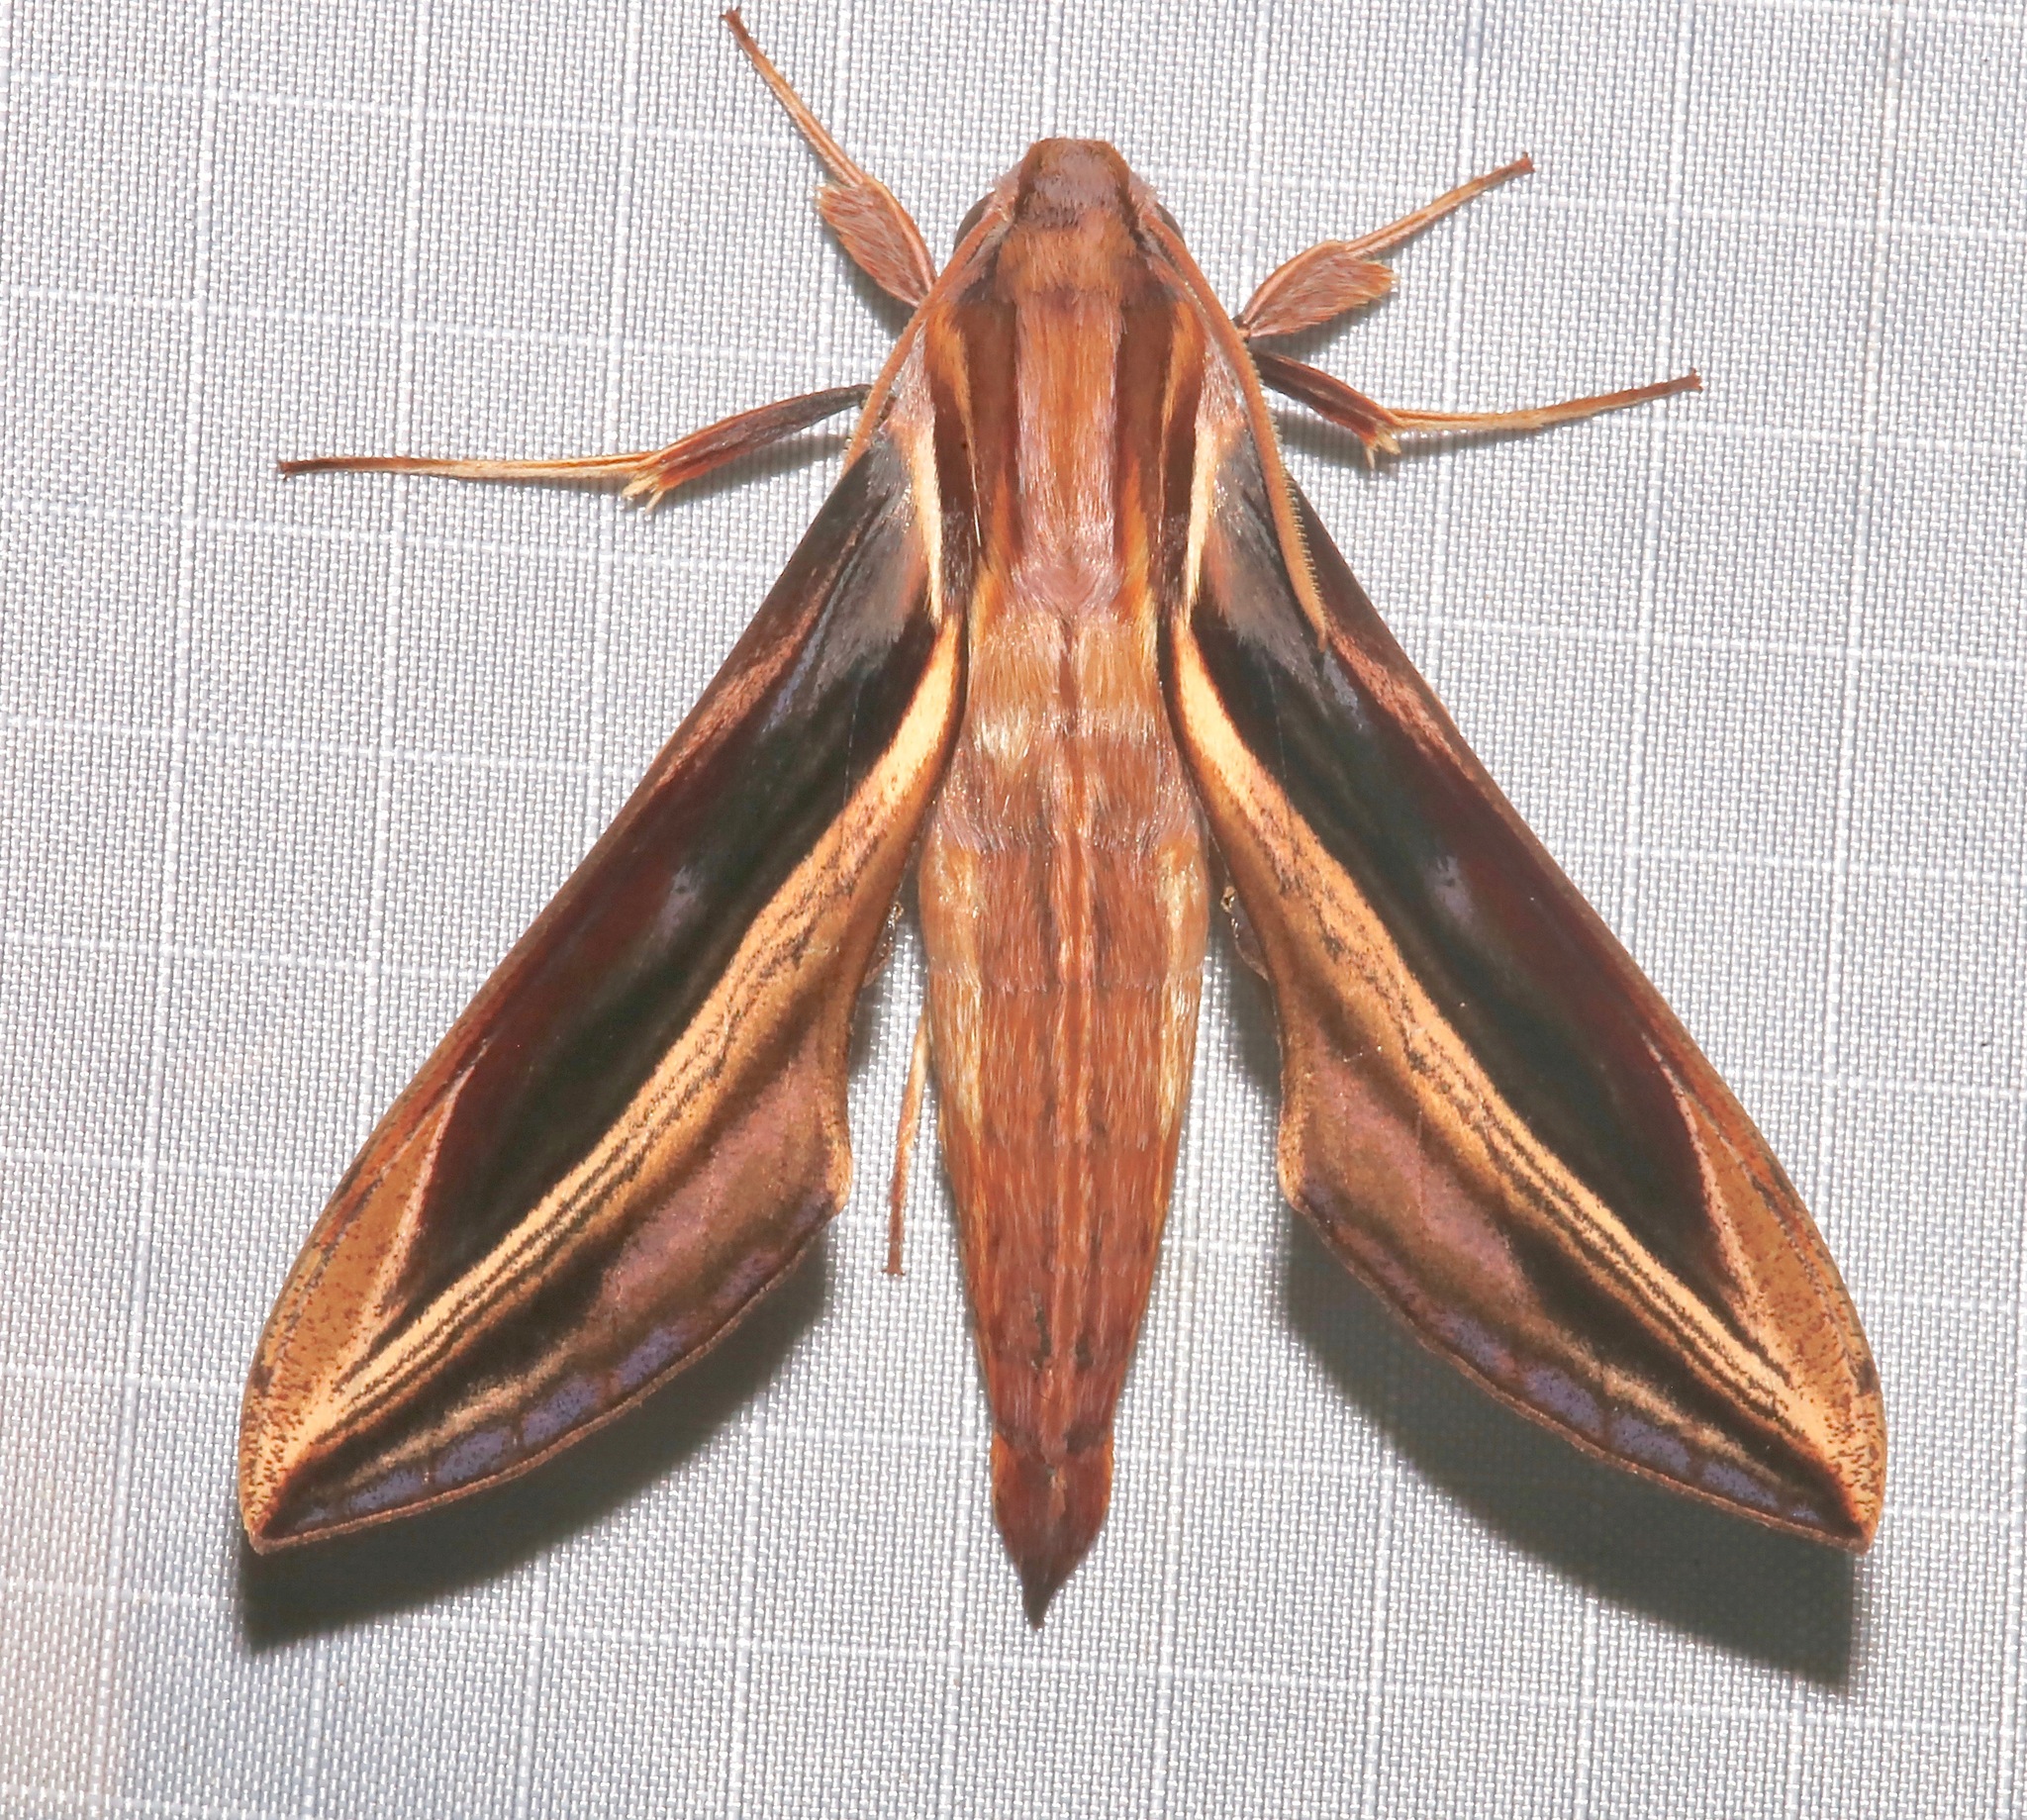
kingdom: Animalia
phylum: Arthropoda
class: Insecta
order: Lepidoptera
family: Sphingidae
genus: Xylophanes
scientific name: Xylophanes pyrrhus
